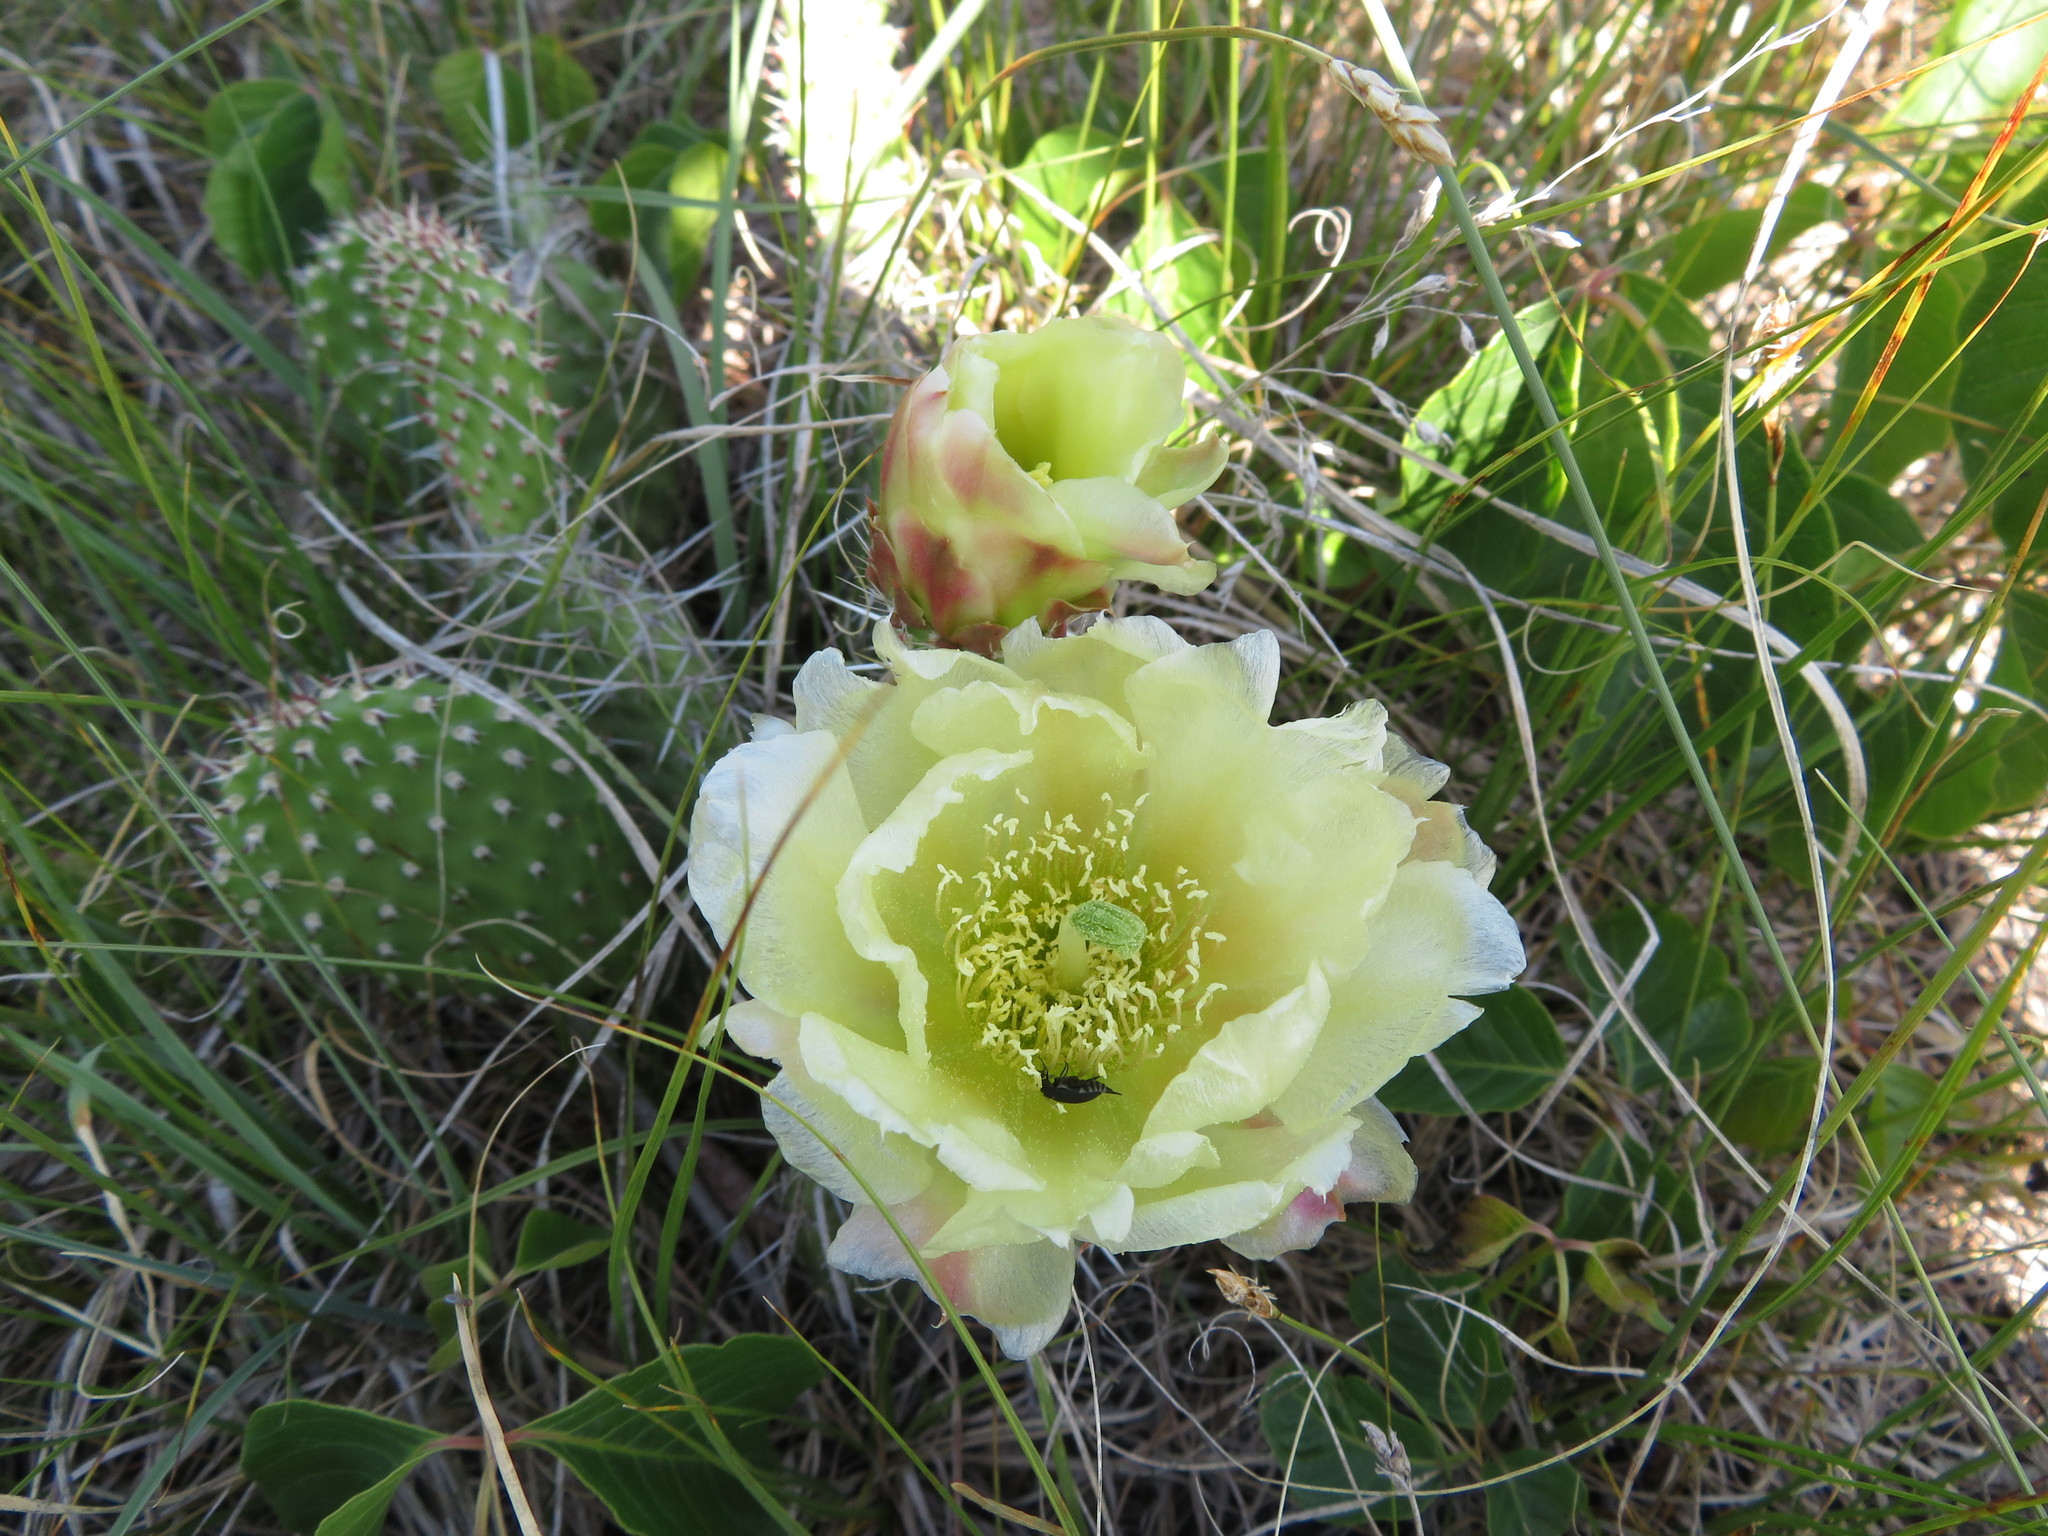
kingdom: Plantae
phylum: Tracheophyta
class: Magnoliopsida
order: Caryophyllales
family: Cactaceae
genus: Opuntia
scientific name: Opuntia polyacantha
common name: Plains prickly-pear
